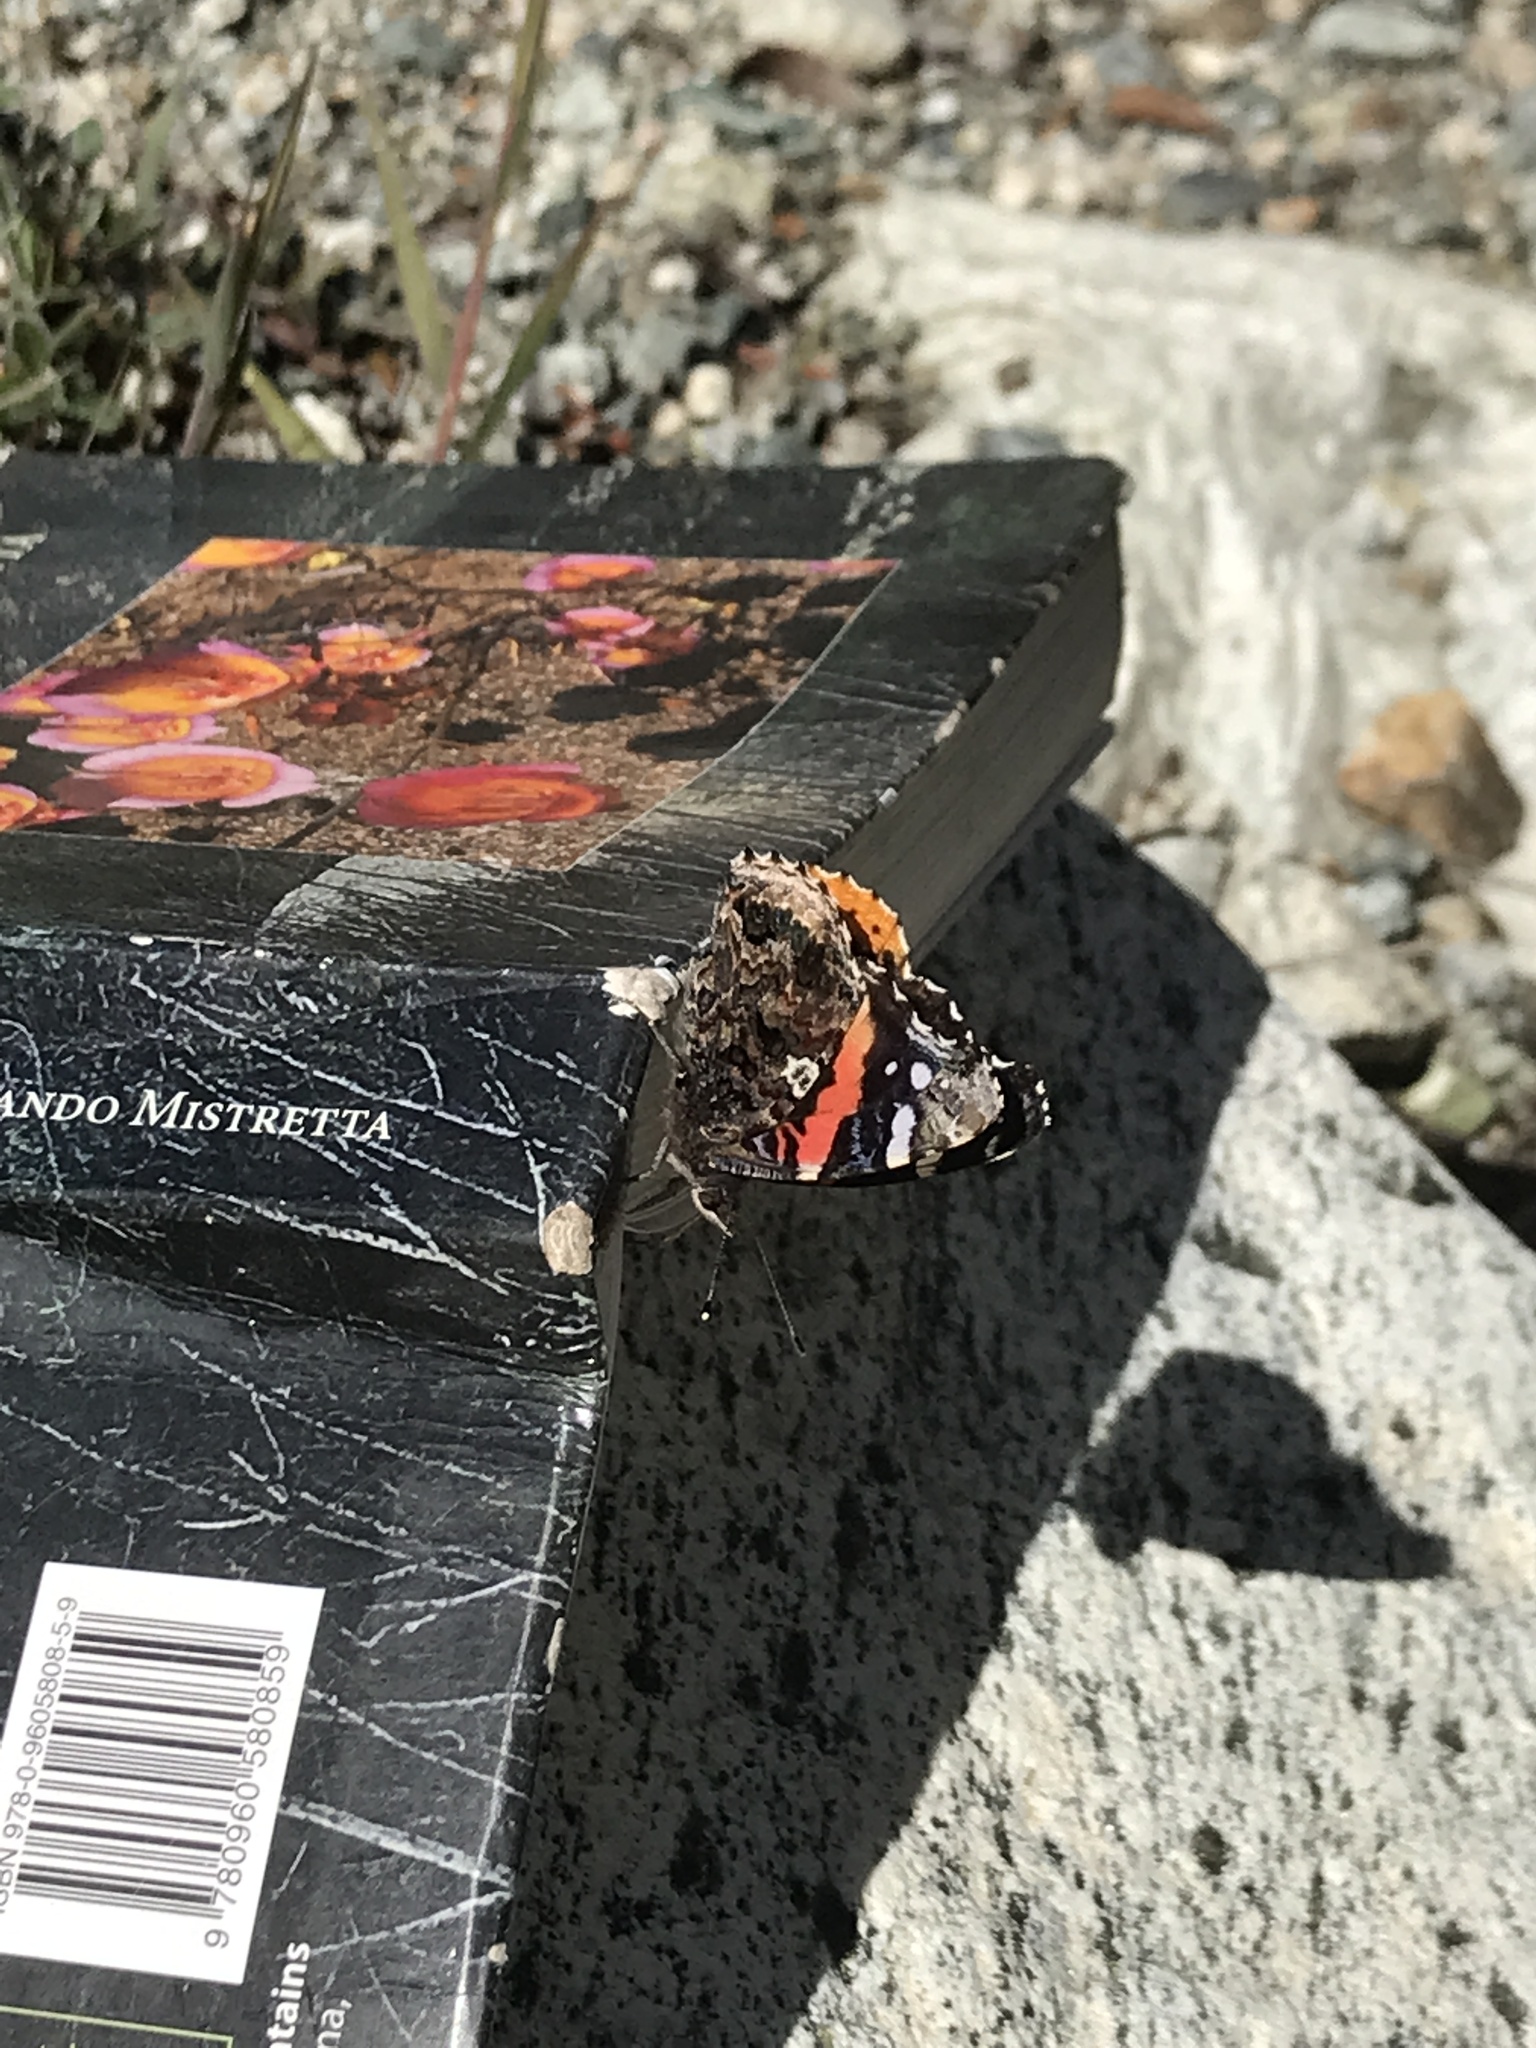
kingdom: Animalia
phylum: Arthropoda
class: Insecta
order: Lepidoptera
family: Nymphalidae
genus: Vanessa
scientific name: Vanessa atalanta
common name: Red admiral
